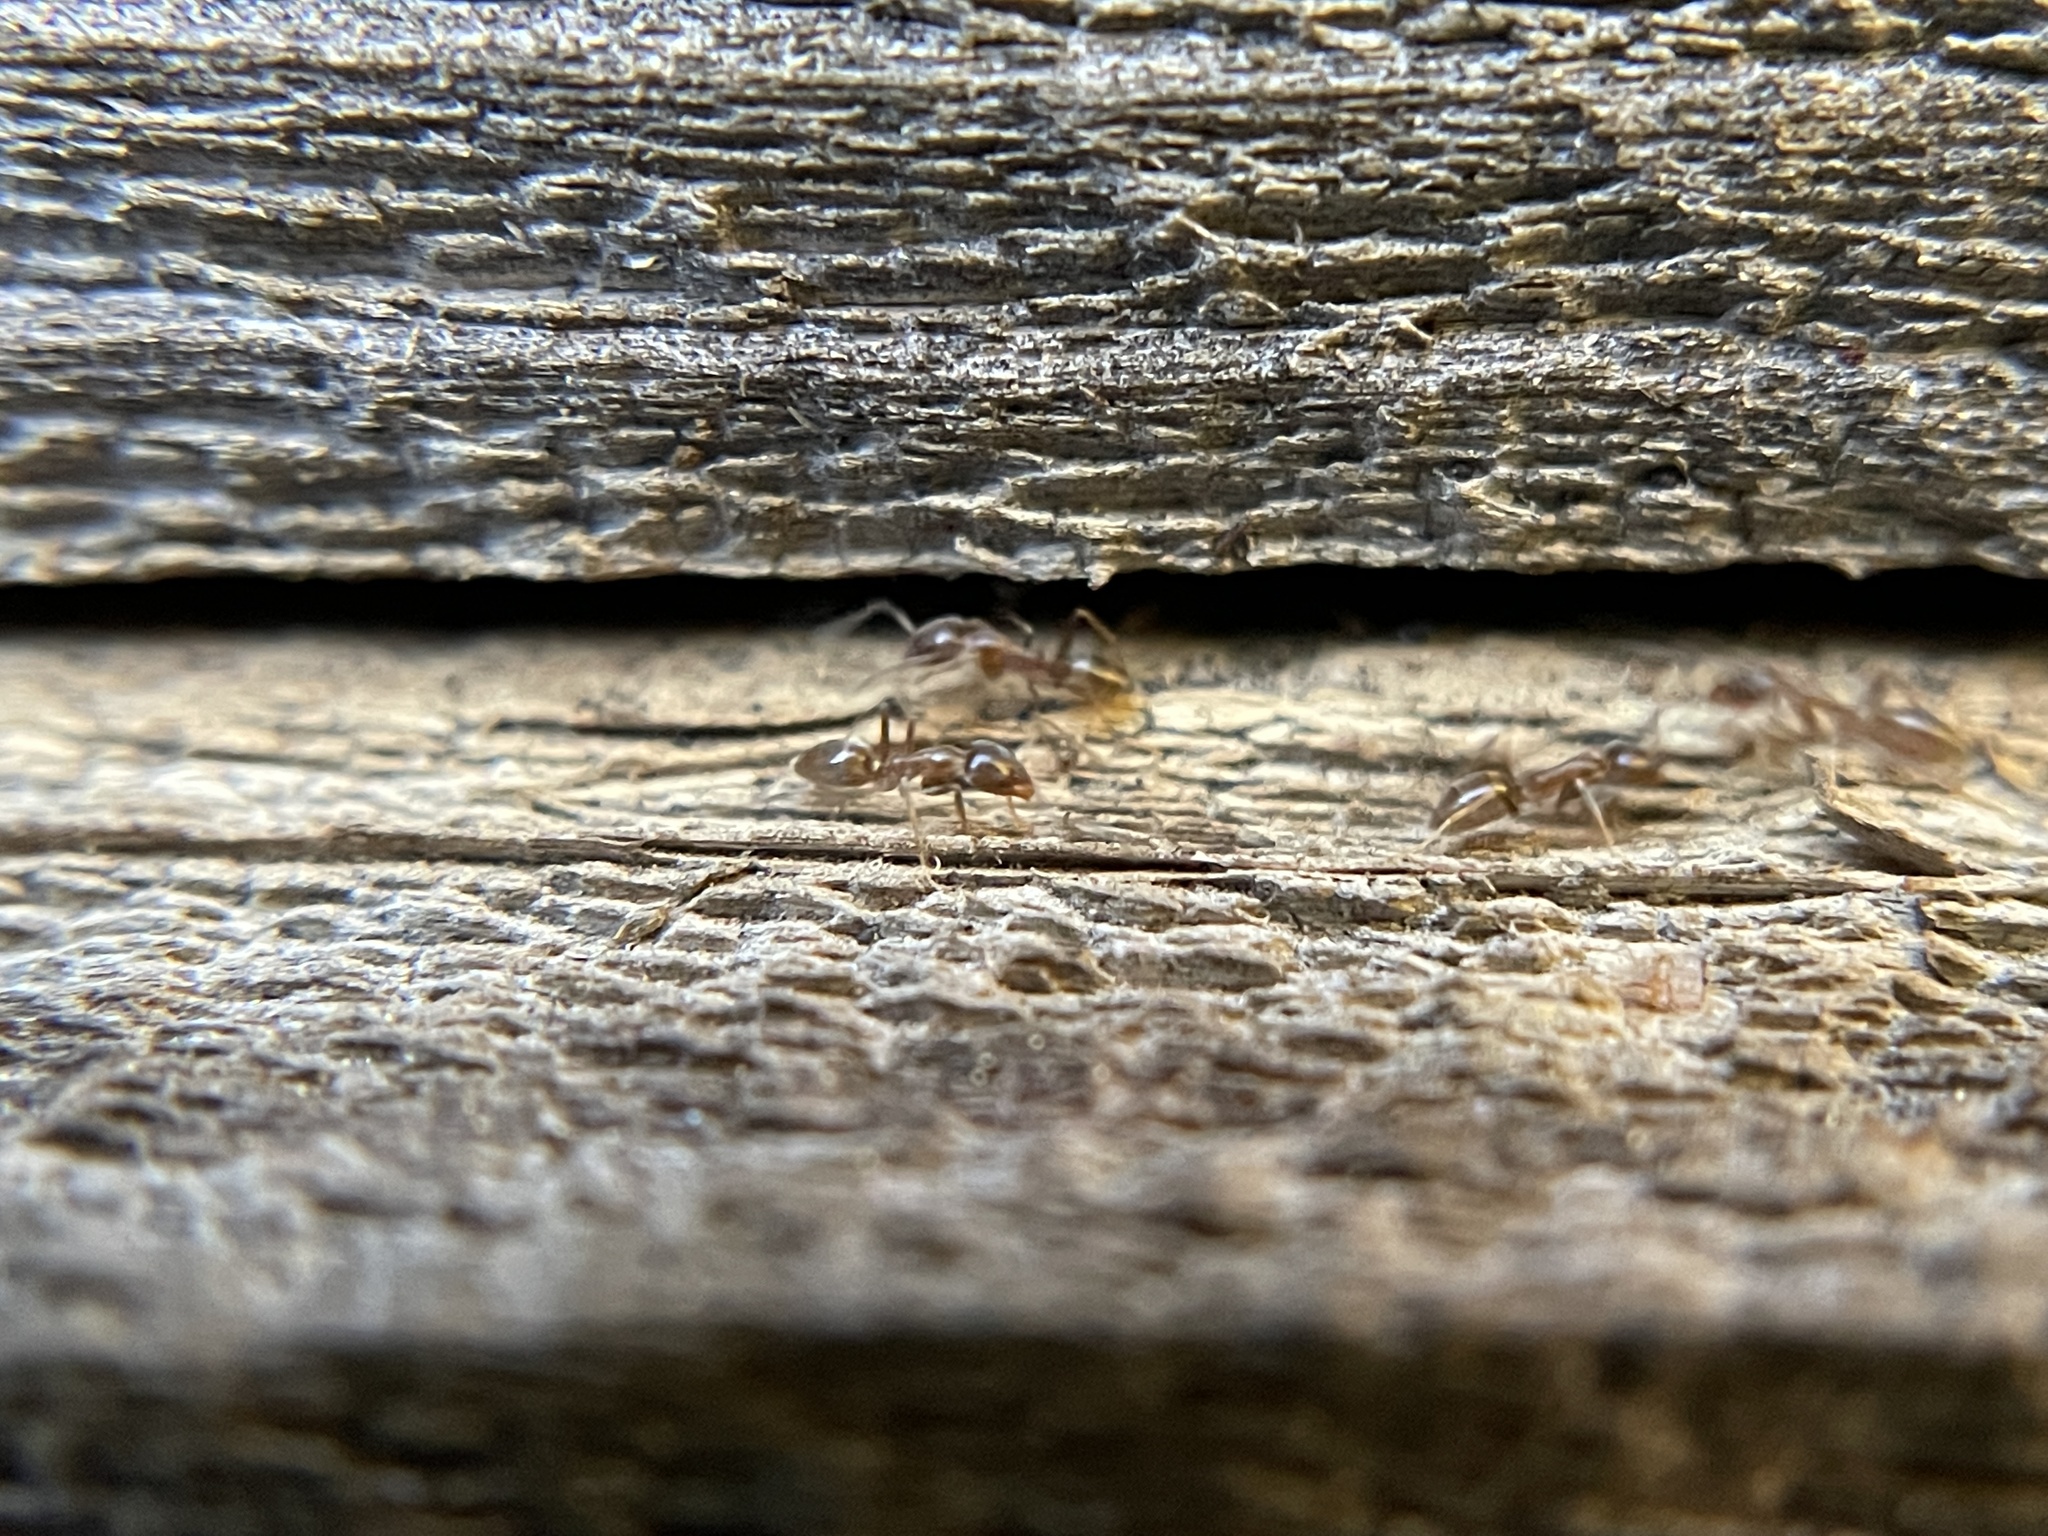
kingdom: Animalia
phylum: Arthropoda
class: Insecta
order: Hymenoptera
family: Formicidae
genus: Linepithema
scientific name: Linepithema humile
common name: Argentine ant
